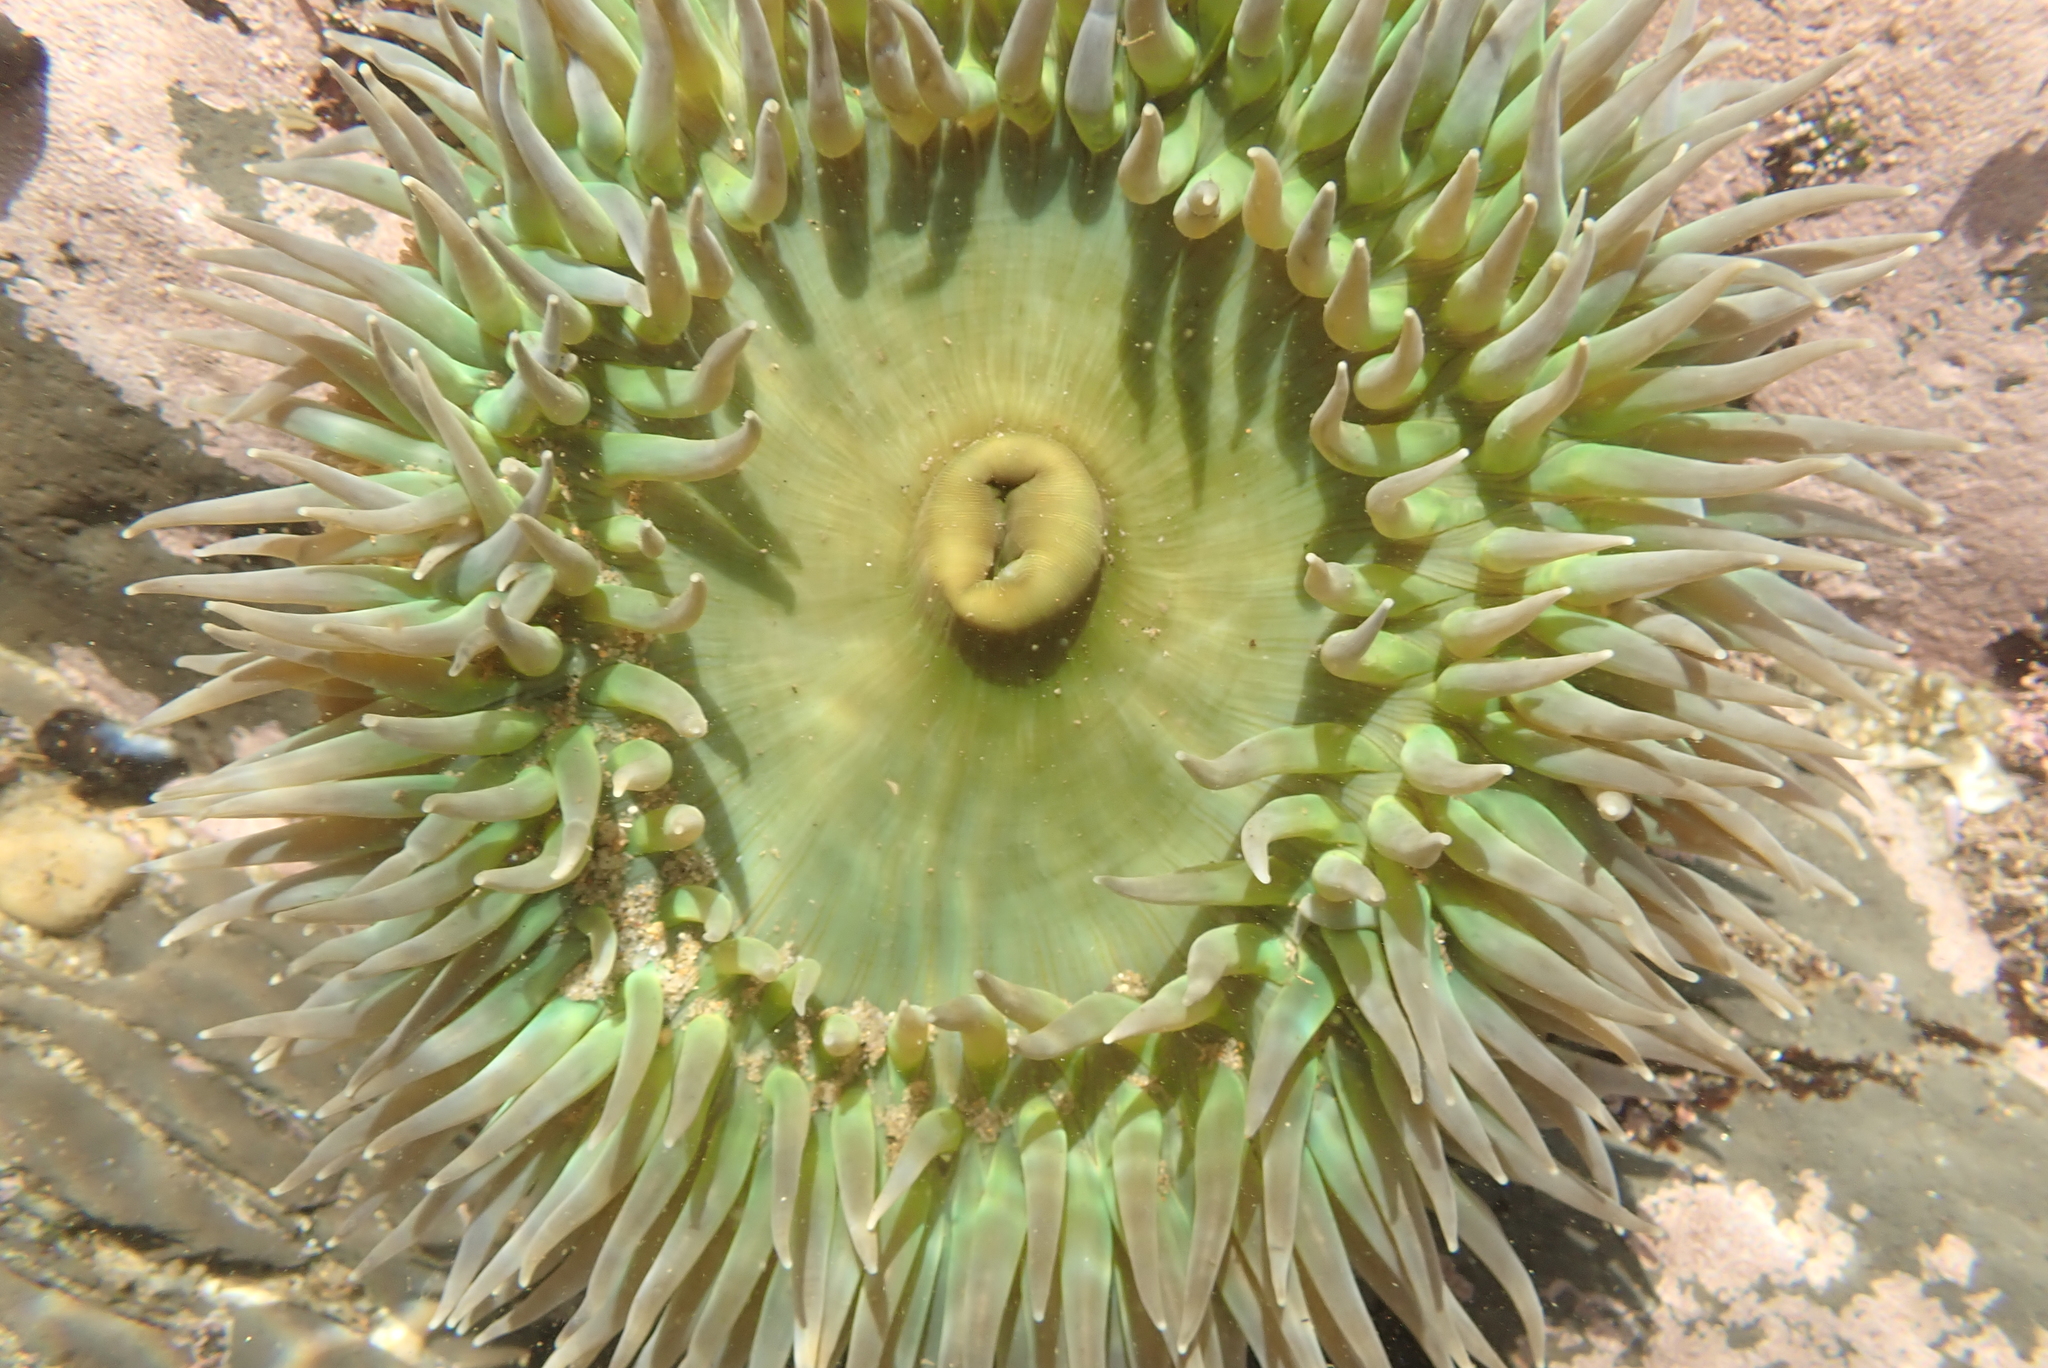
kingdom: Animalia
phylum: Cnidaria
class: Anthozoa
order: Actiniaria
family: Actiniidae
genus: Anthopleura
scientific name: Anthopleura xanthogrammica
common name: Giant green anemone
